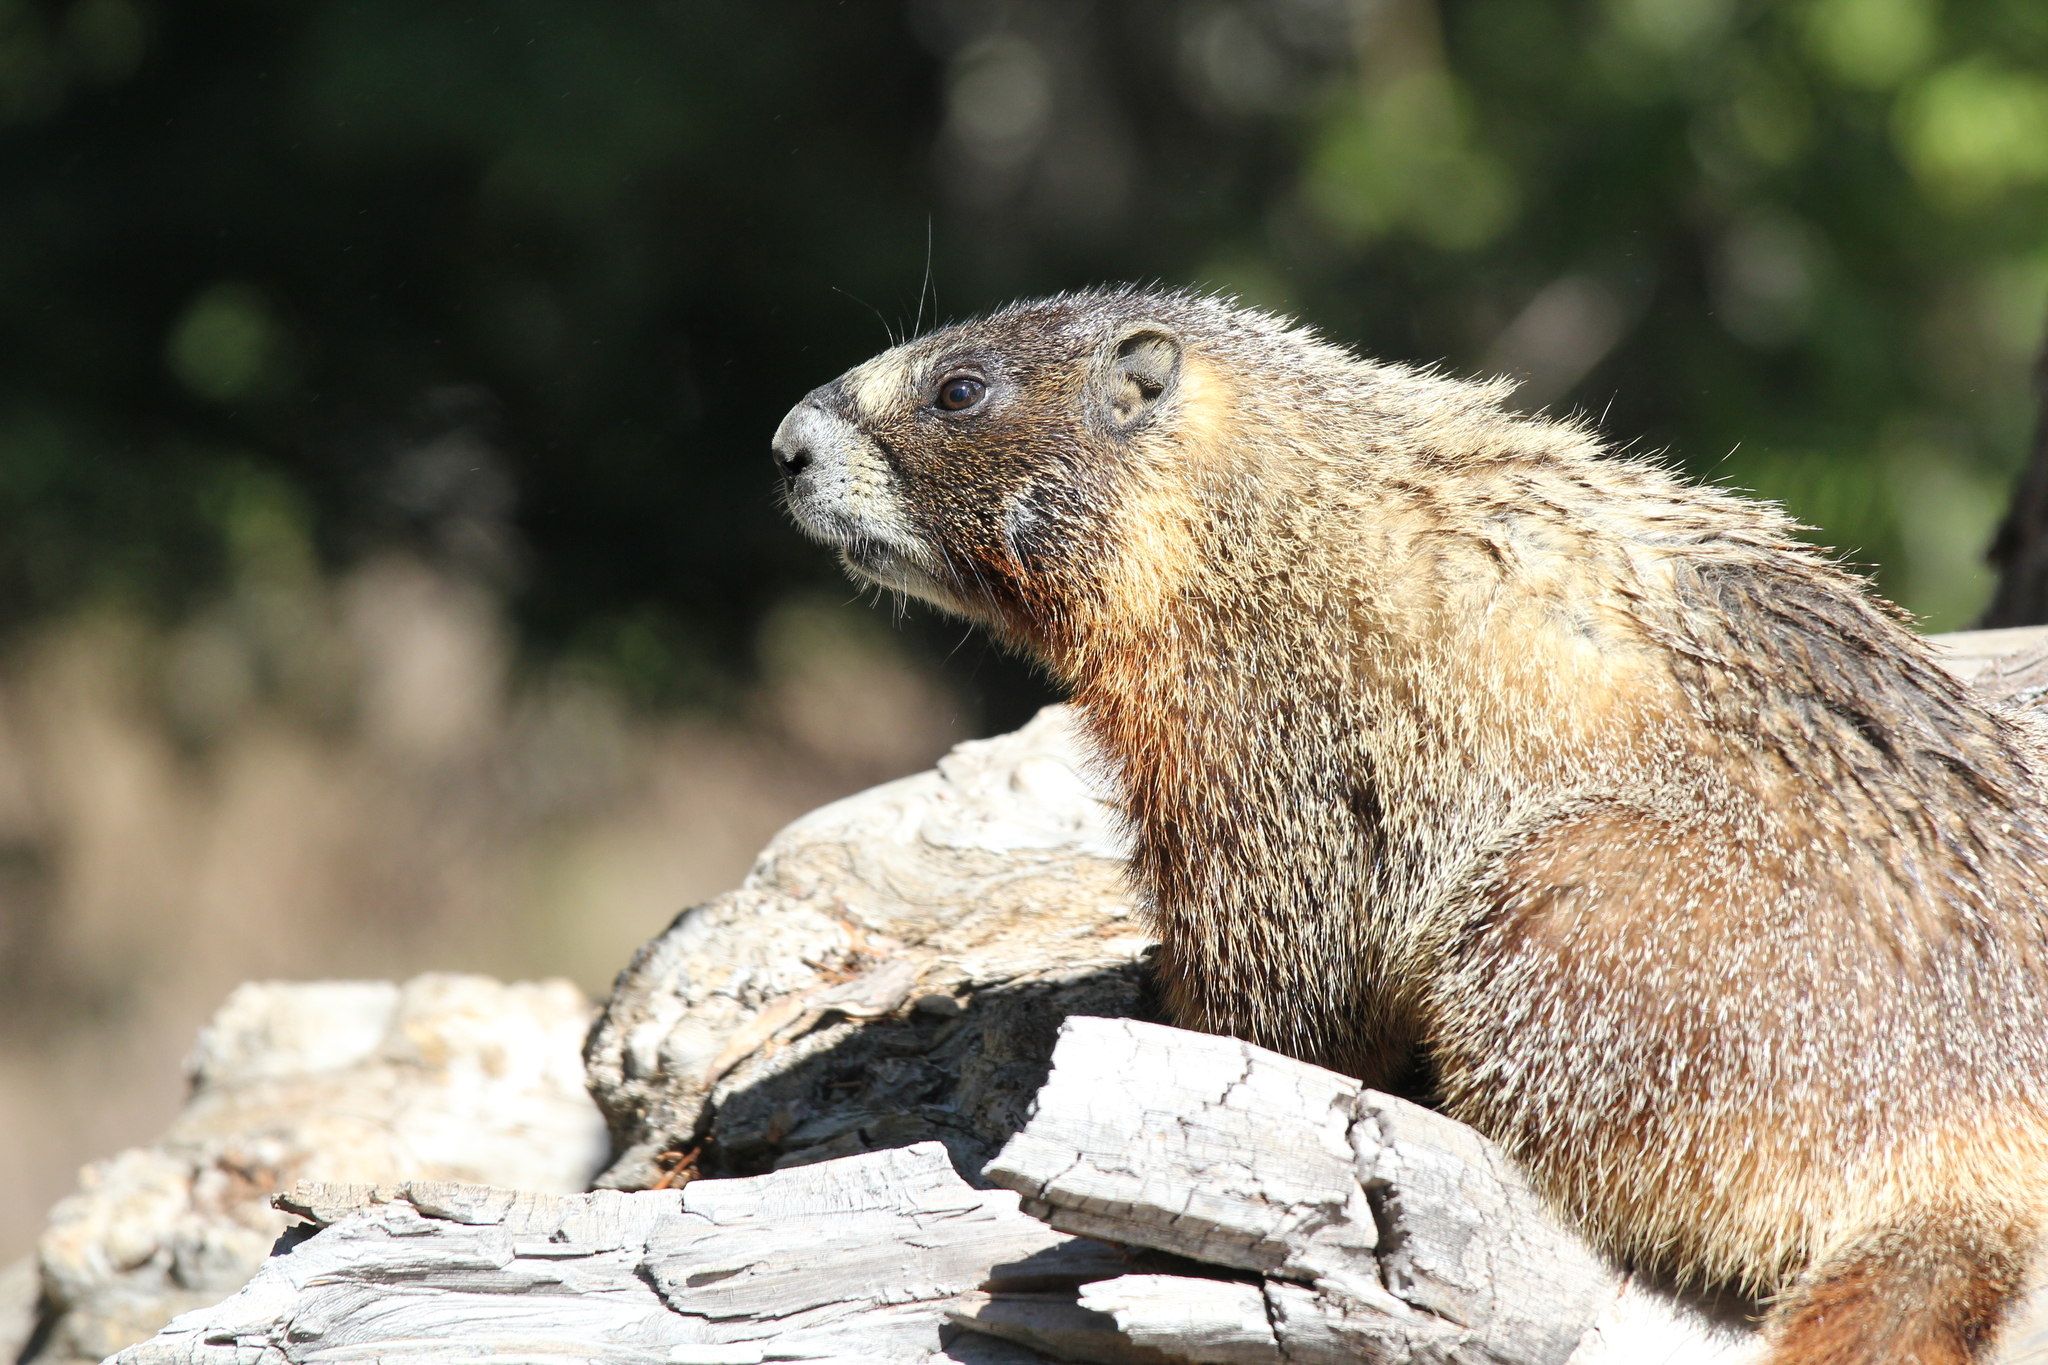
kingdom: Animalia
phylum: Chordata
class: Mammalia
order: Rodentia
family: Sciuridae
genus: Marmota
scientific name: Marmota flaviventris
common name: Yellow-bellied marmot
